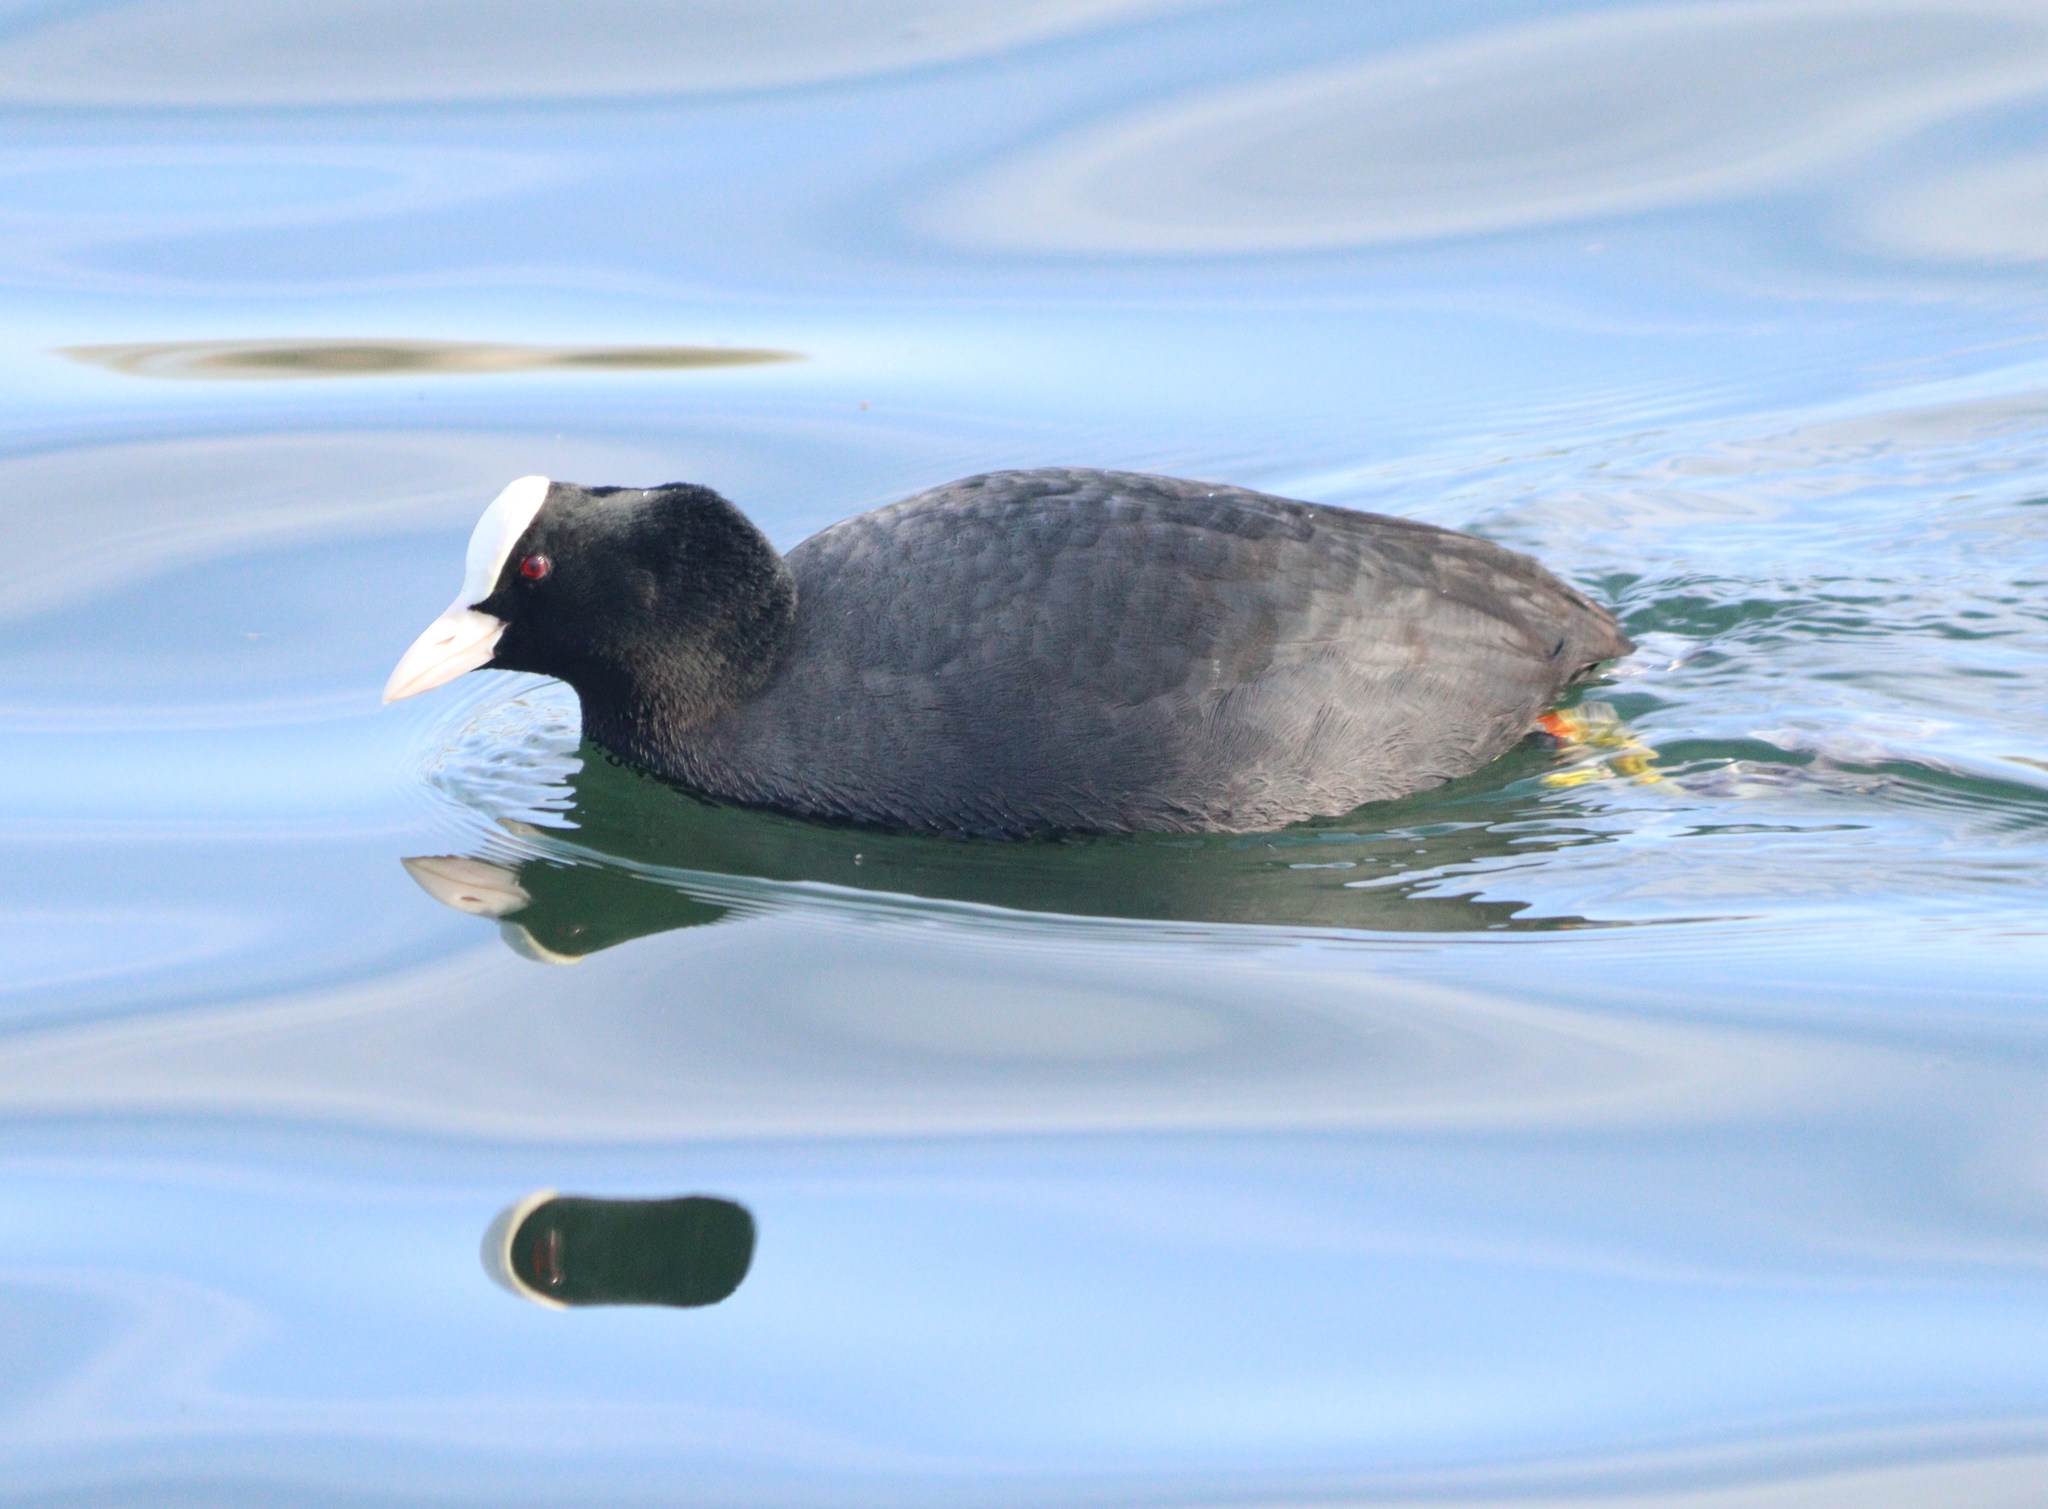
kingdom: Animalia
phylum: Chordata
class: Aves
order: Gruiformes
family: Rallidae
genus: Fulica
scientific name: Fulica atra
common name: Eurasian coot
